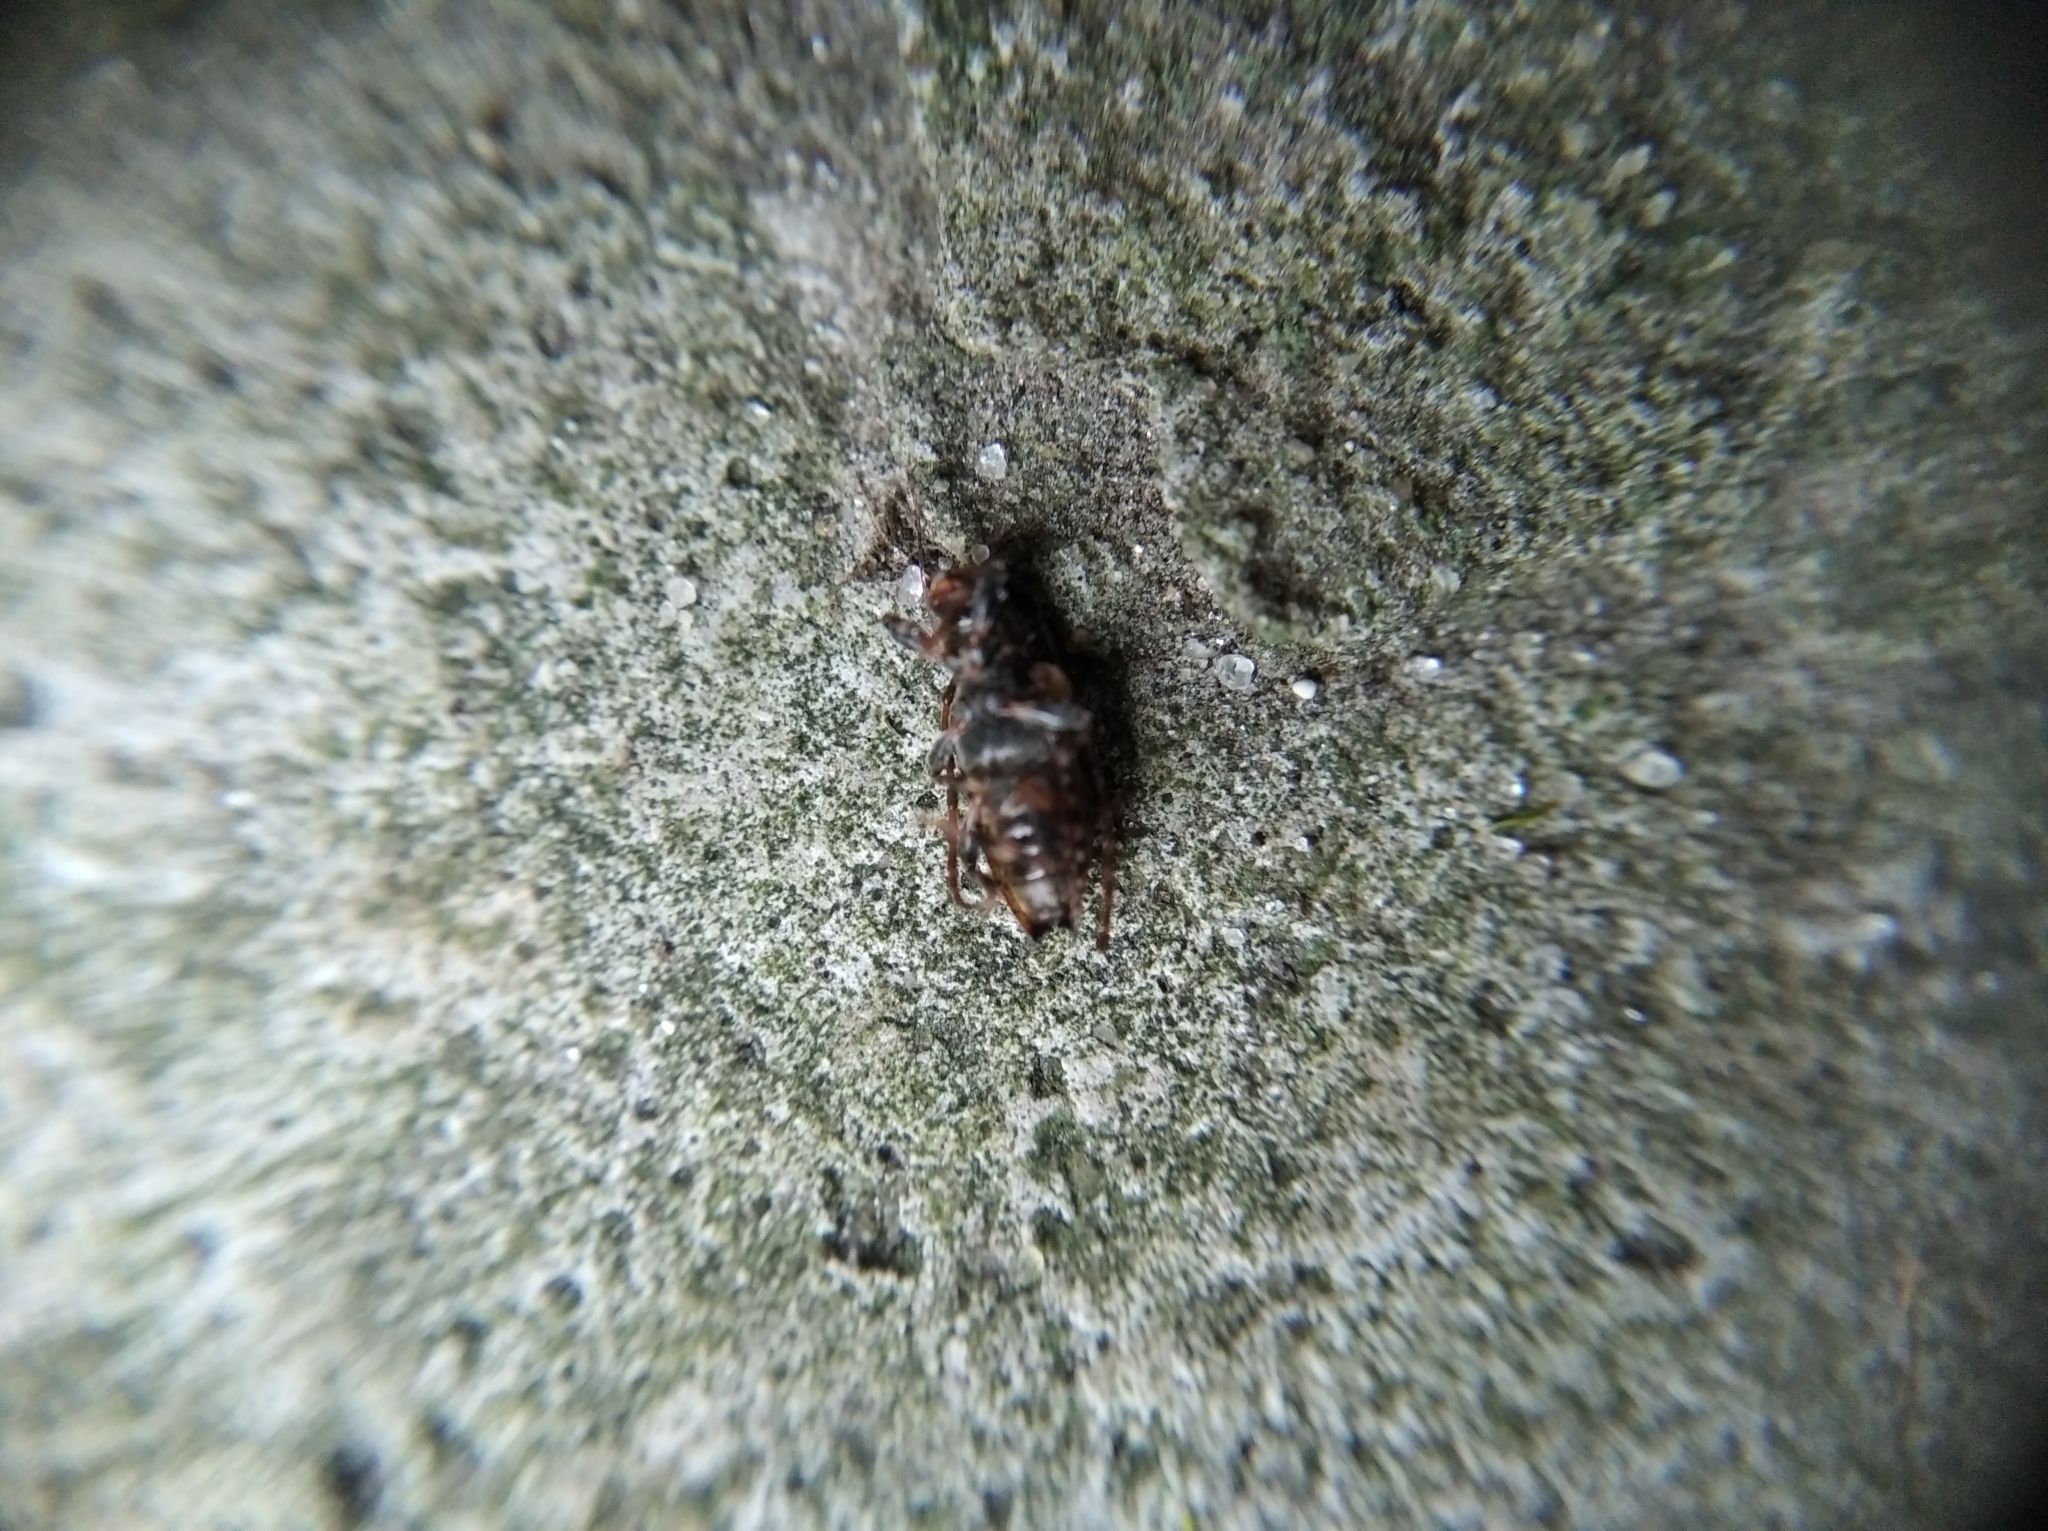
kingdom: Animalia
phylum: Arthropoda
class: Insecta
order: Coleoptera
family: Cerambycidae
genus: Pogonocherus
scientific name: Pogonocherus hispidus
